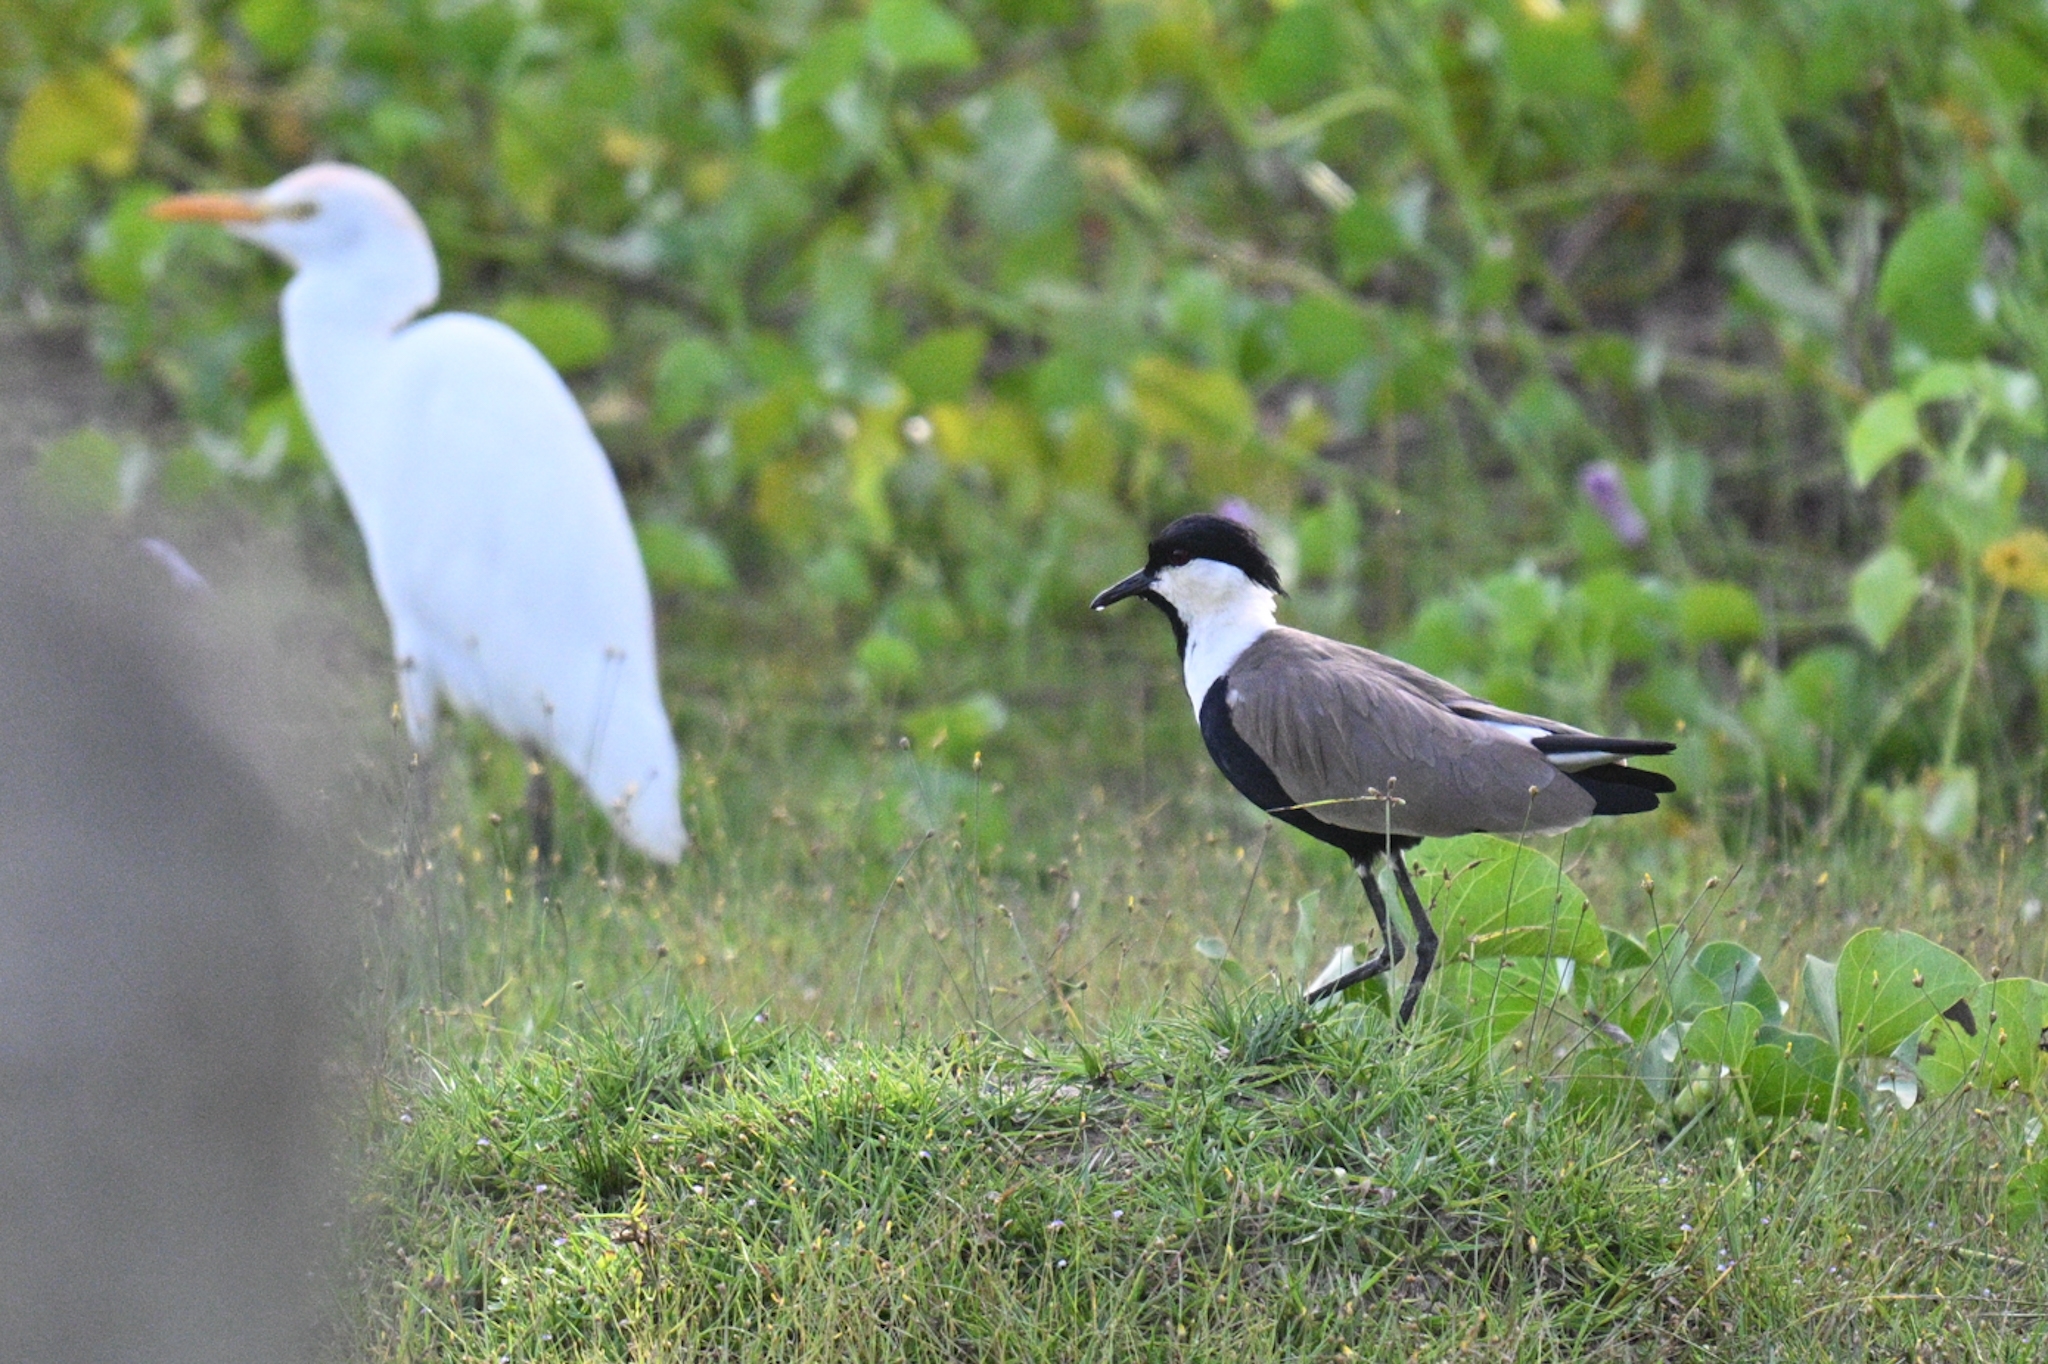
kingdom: Animalia
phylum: Chordata
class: Aves
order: Charadriiformes
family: Charadriidae
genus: Vanellus
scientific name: Vanellus spinosus
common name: Spur-winged lapwing
